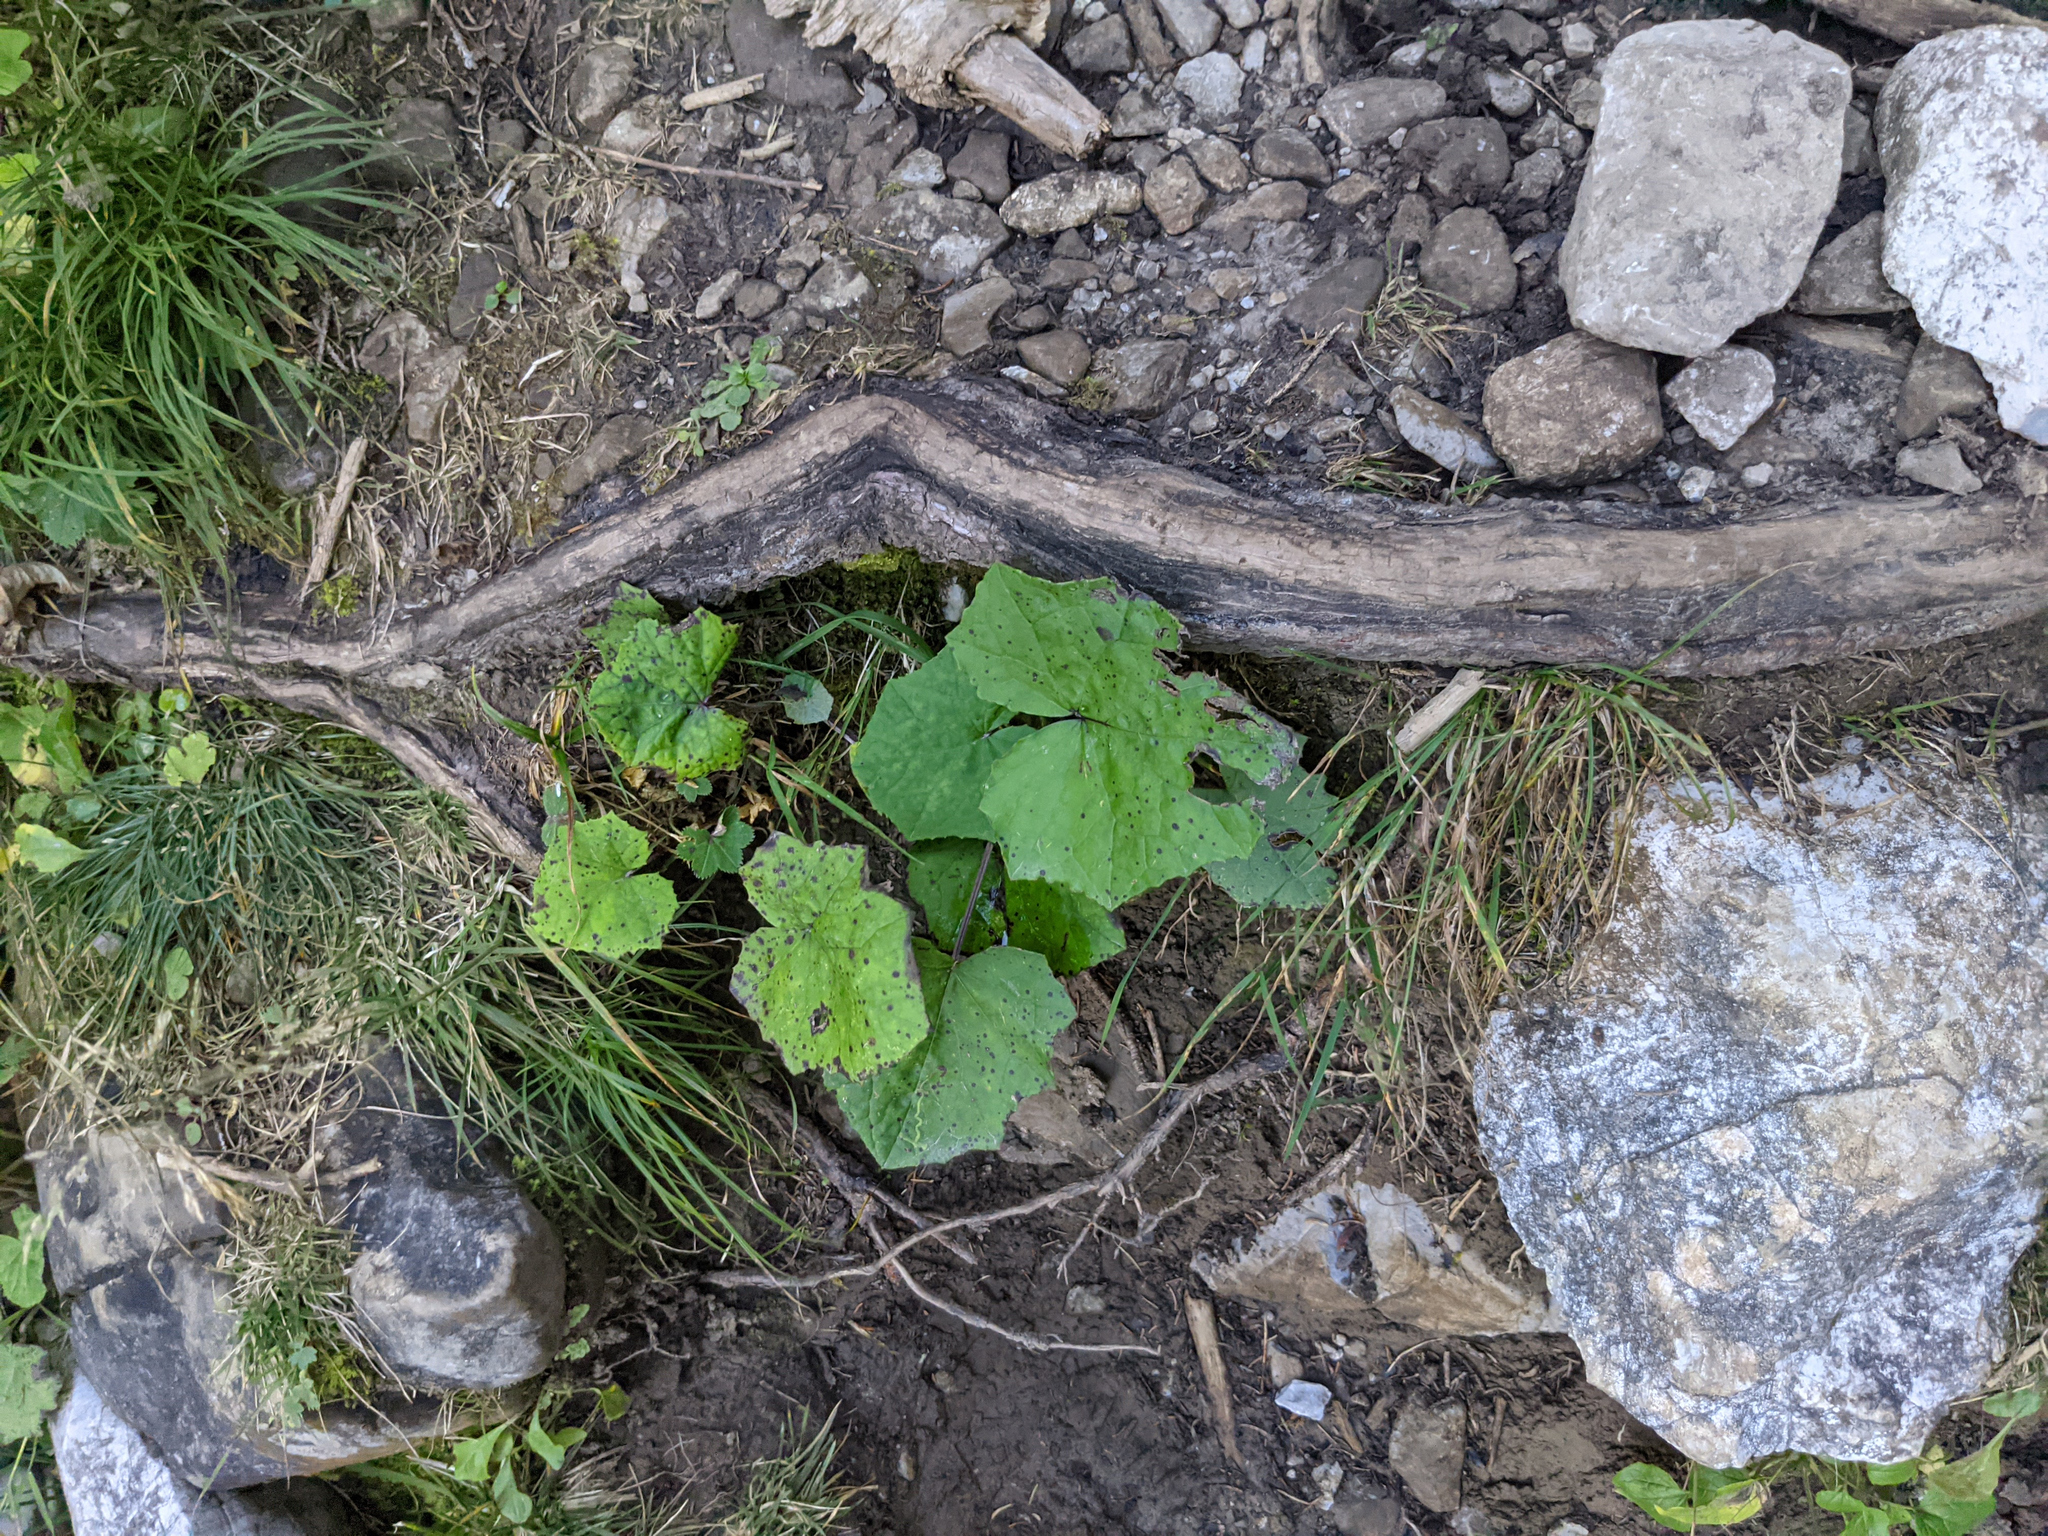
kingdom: Plantae
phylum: Tracheophyta
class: Magnoliopsida
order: Asterales
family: Asteraceae
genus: Tussilago
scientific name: Tussilago farfara
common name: Coltsfoot
